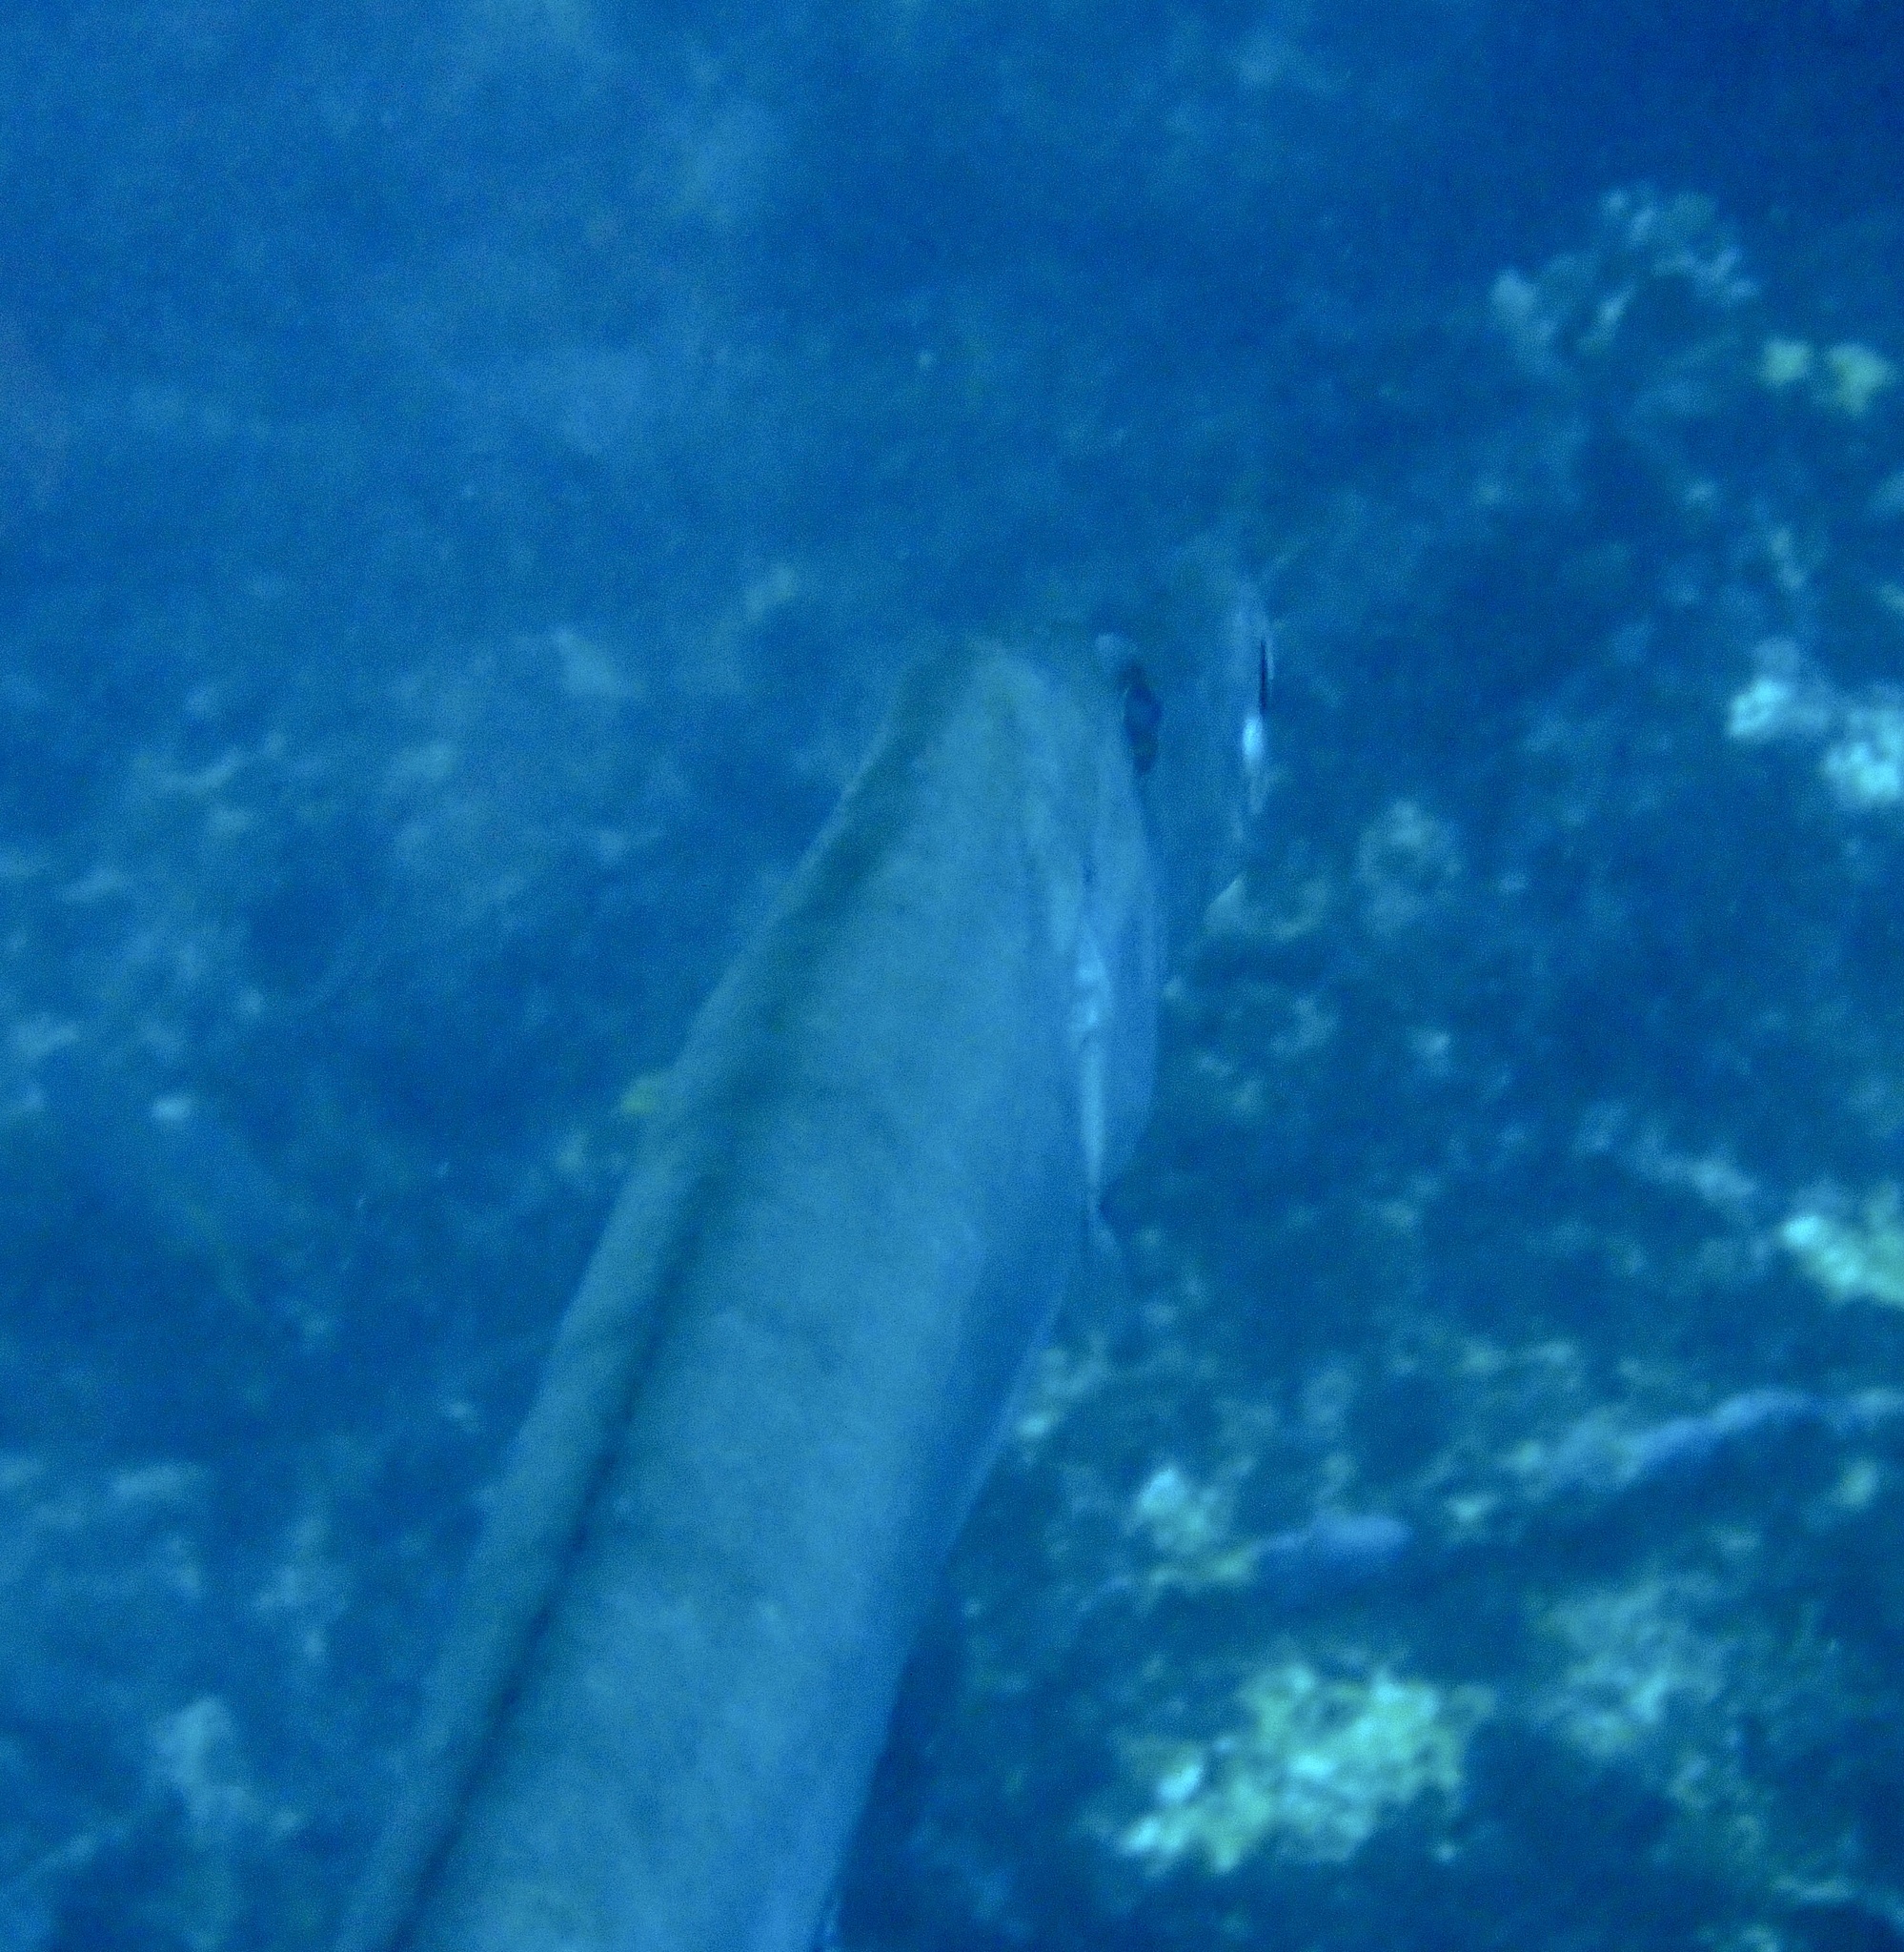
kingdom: Animalia
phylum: Chordata
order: Syngnathiformes
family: Aulostomidae
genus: Aulostomus
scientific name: Aulostomus strigosus
